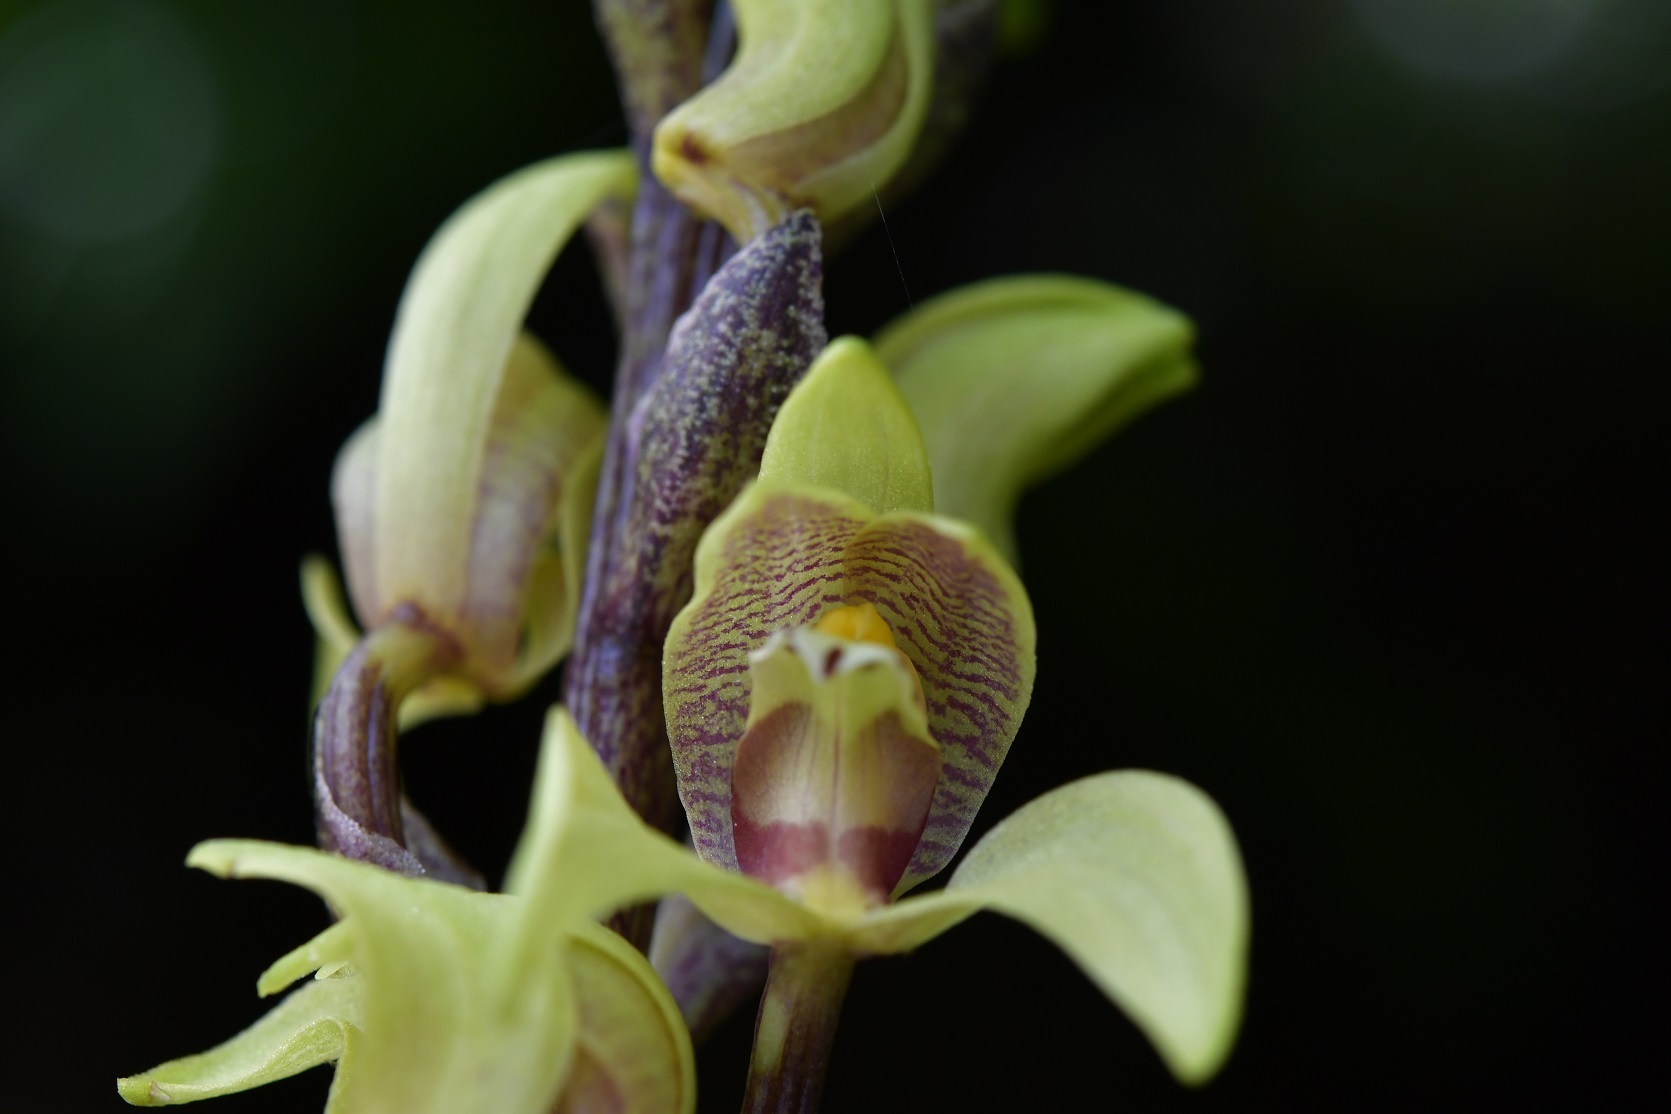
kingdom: Plantae
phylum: Tracheophyta
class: Liliopsida
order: Asparagales
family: Orchidaceae
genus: Govenia
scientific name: Govenia superba
